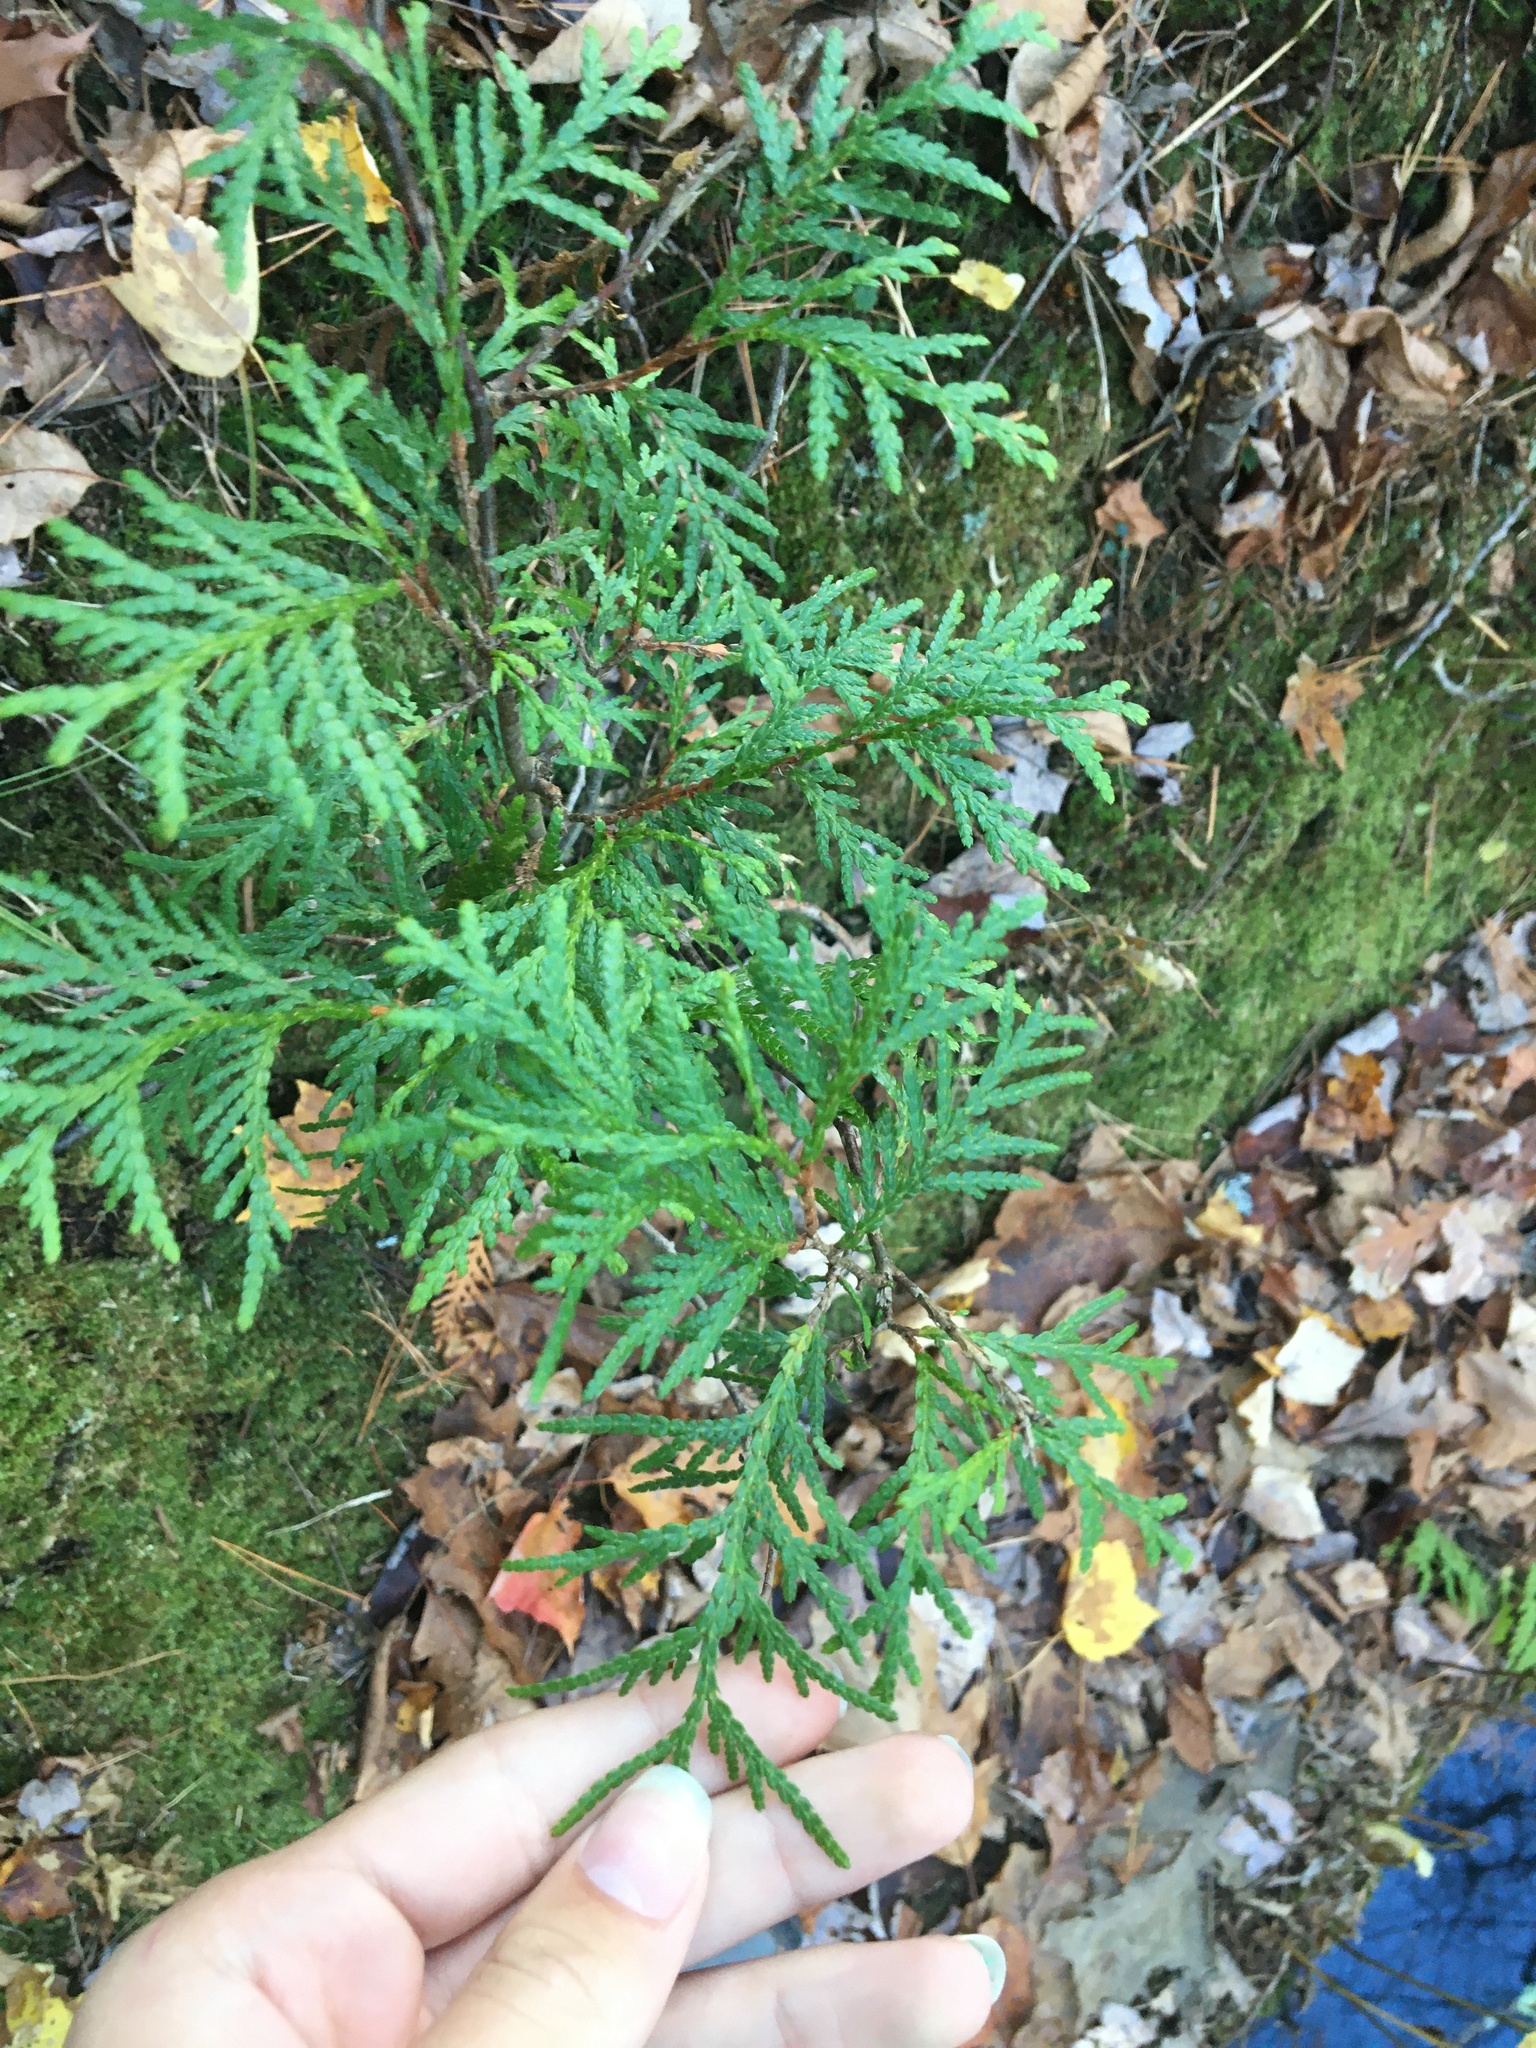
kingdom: Plantae
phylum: Tracheophyta
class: Pinopsida
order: Pinales
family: Cupressaceae
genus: Thuja
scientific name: Thuja occidentalis
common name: Northern white-cedar
